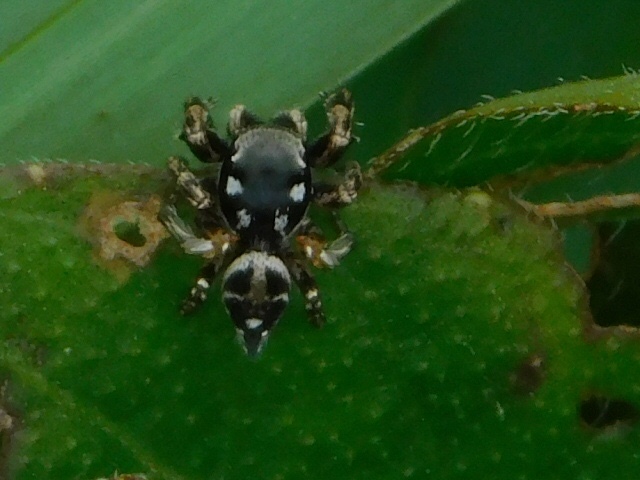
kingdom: Animalia
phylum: Arthropoda
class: Arachnida
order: Araneae
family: Salticidae
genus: Habronattus
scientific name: Habronattus brunneus
